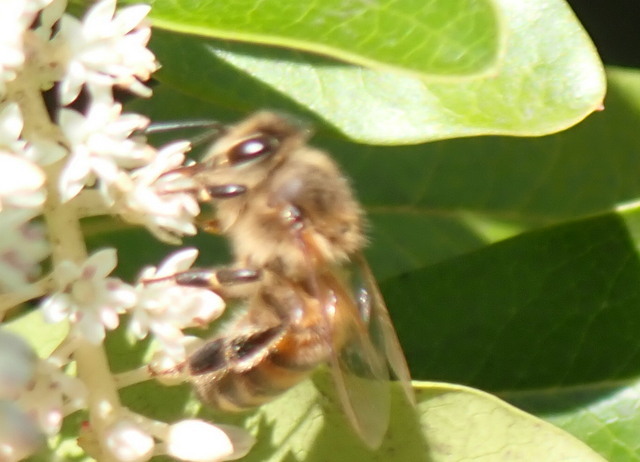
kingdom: Animalia
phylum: Arthropoda
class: Insecta
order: Hymenoptera
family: Apidae
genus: Apis
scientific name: Apis mellifera
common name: Honey bee
